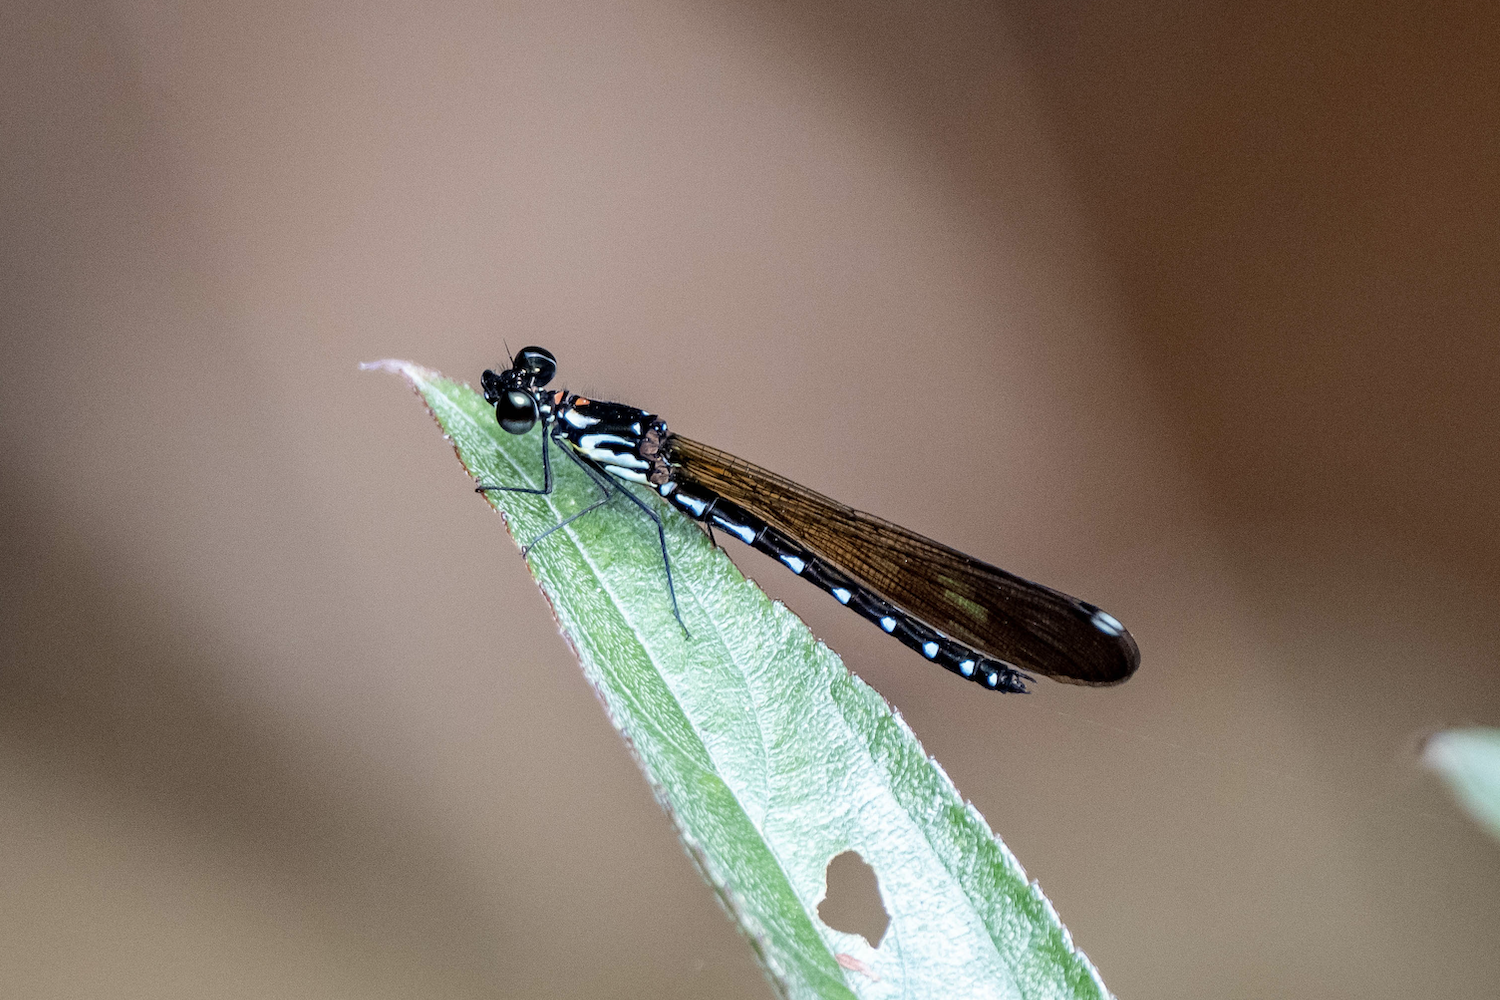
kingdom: Animalia
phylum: Arthropoda
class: Insecta
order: Odonata
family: Chlorocyphidae
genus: Heliocypha
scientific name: Heliocypha perforata
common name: Common blue jewel
